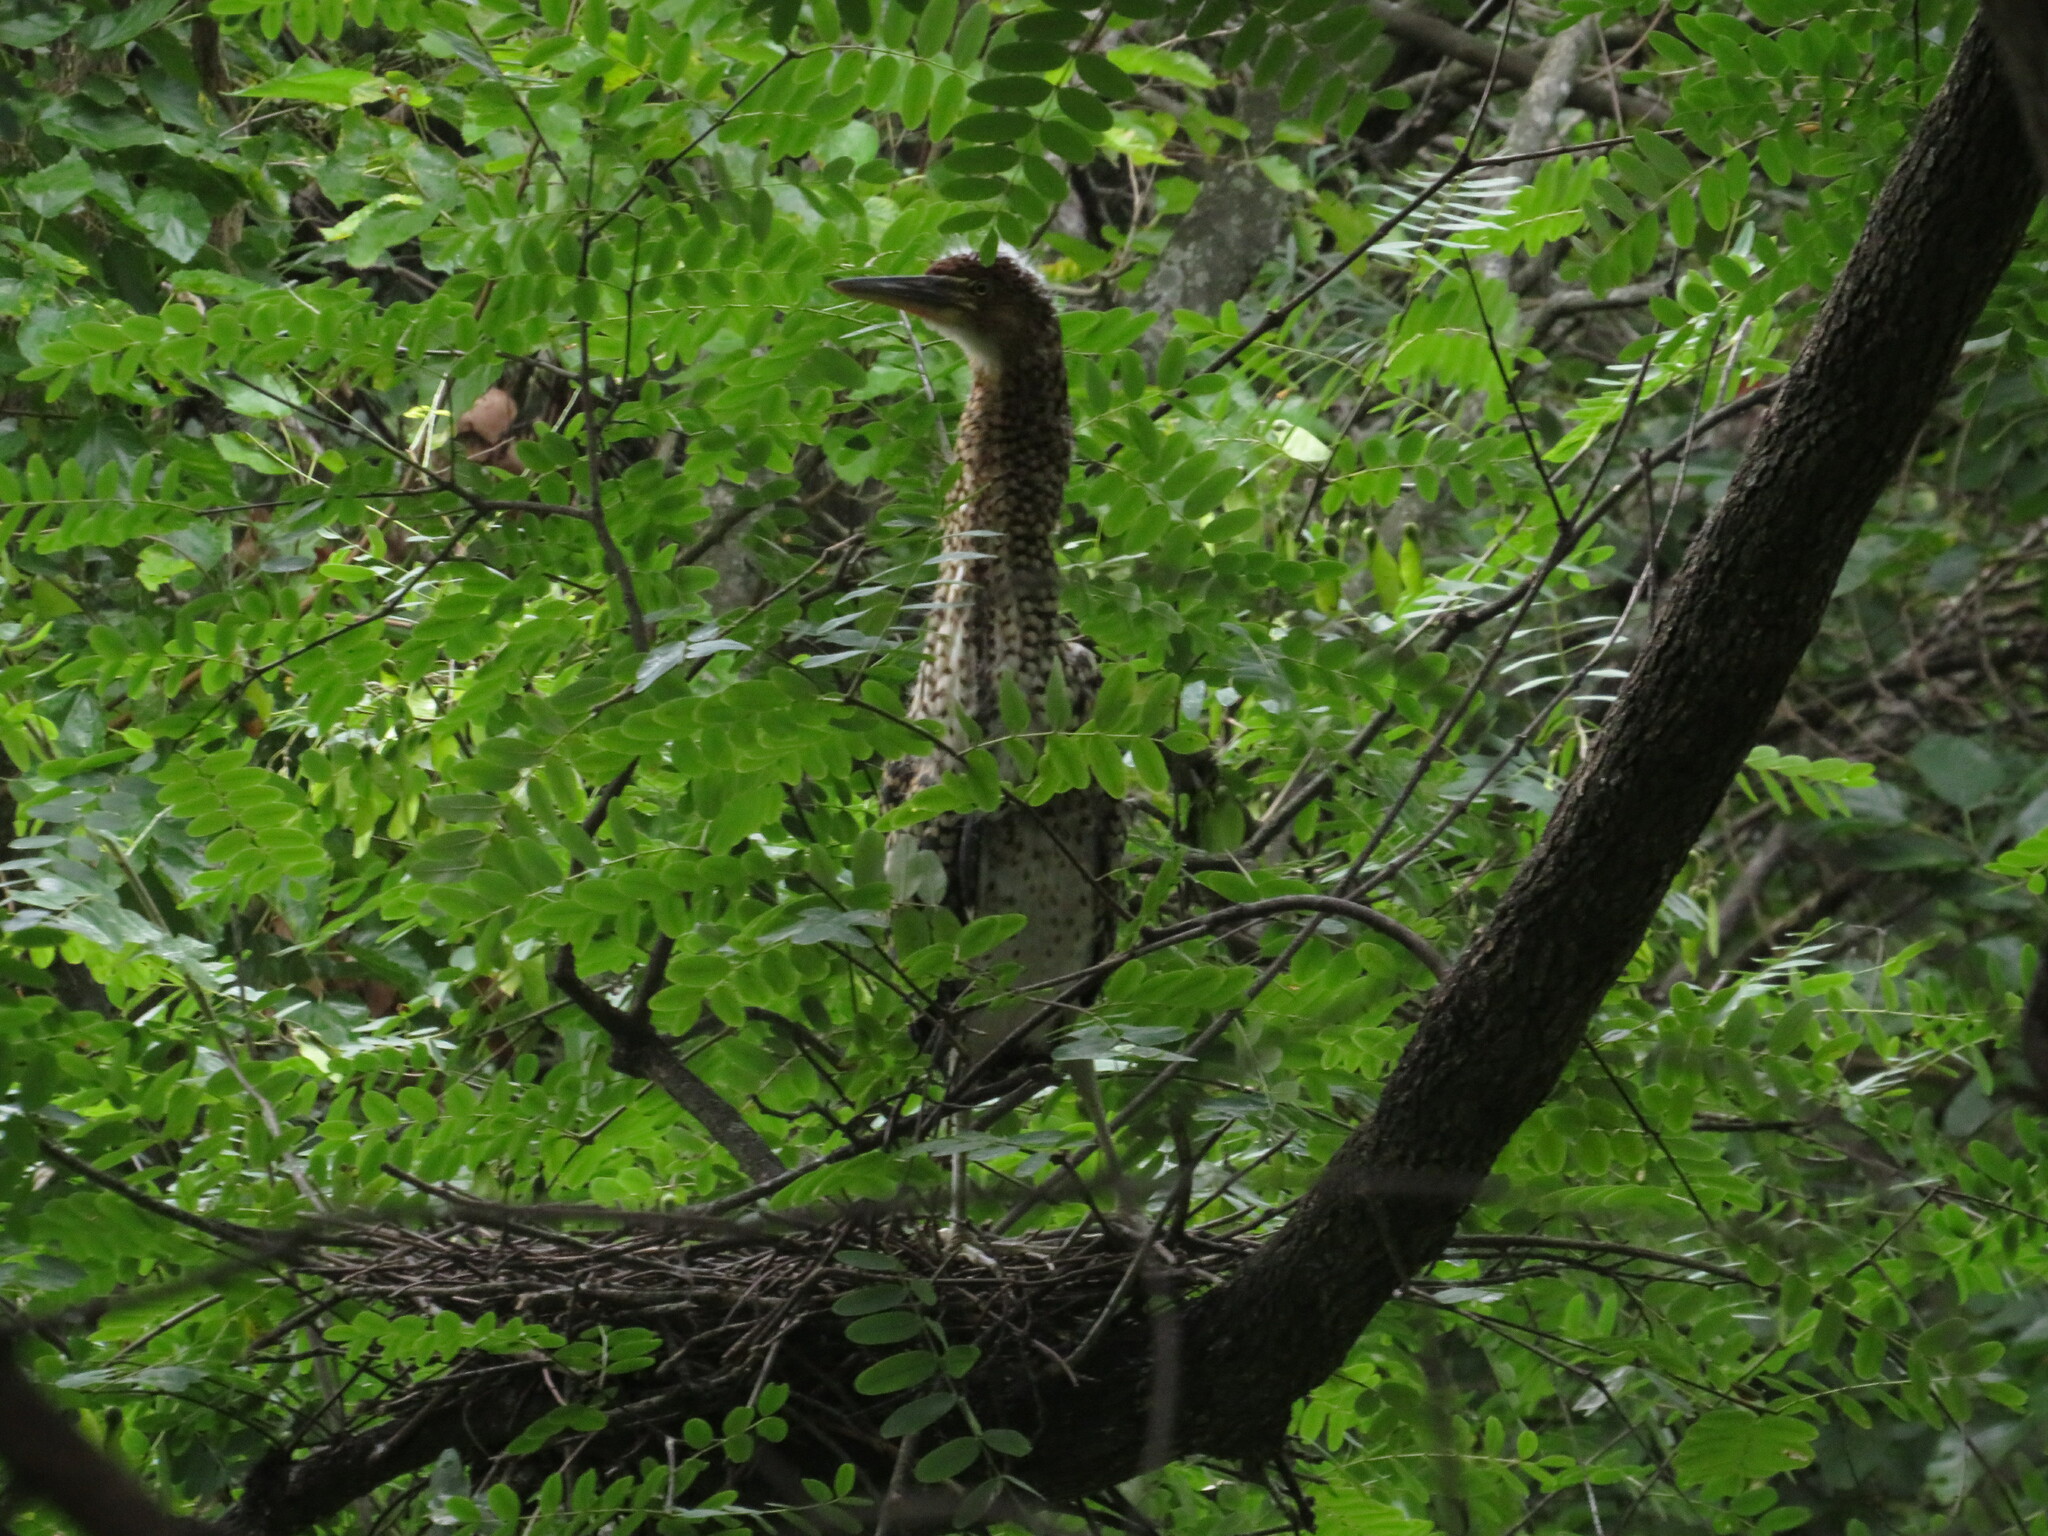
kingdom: Animalia
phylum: Chordata
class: Aves
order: Pelecaniformes
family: Ardeidae
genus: Tigrisoma
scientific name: Tigrisoma lineatum
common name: Rufescent tiger-heron
